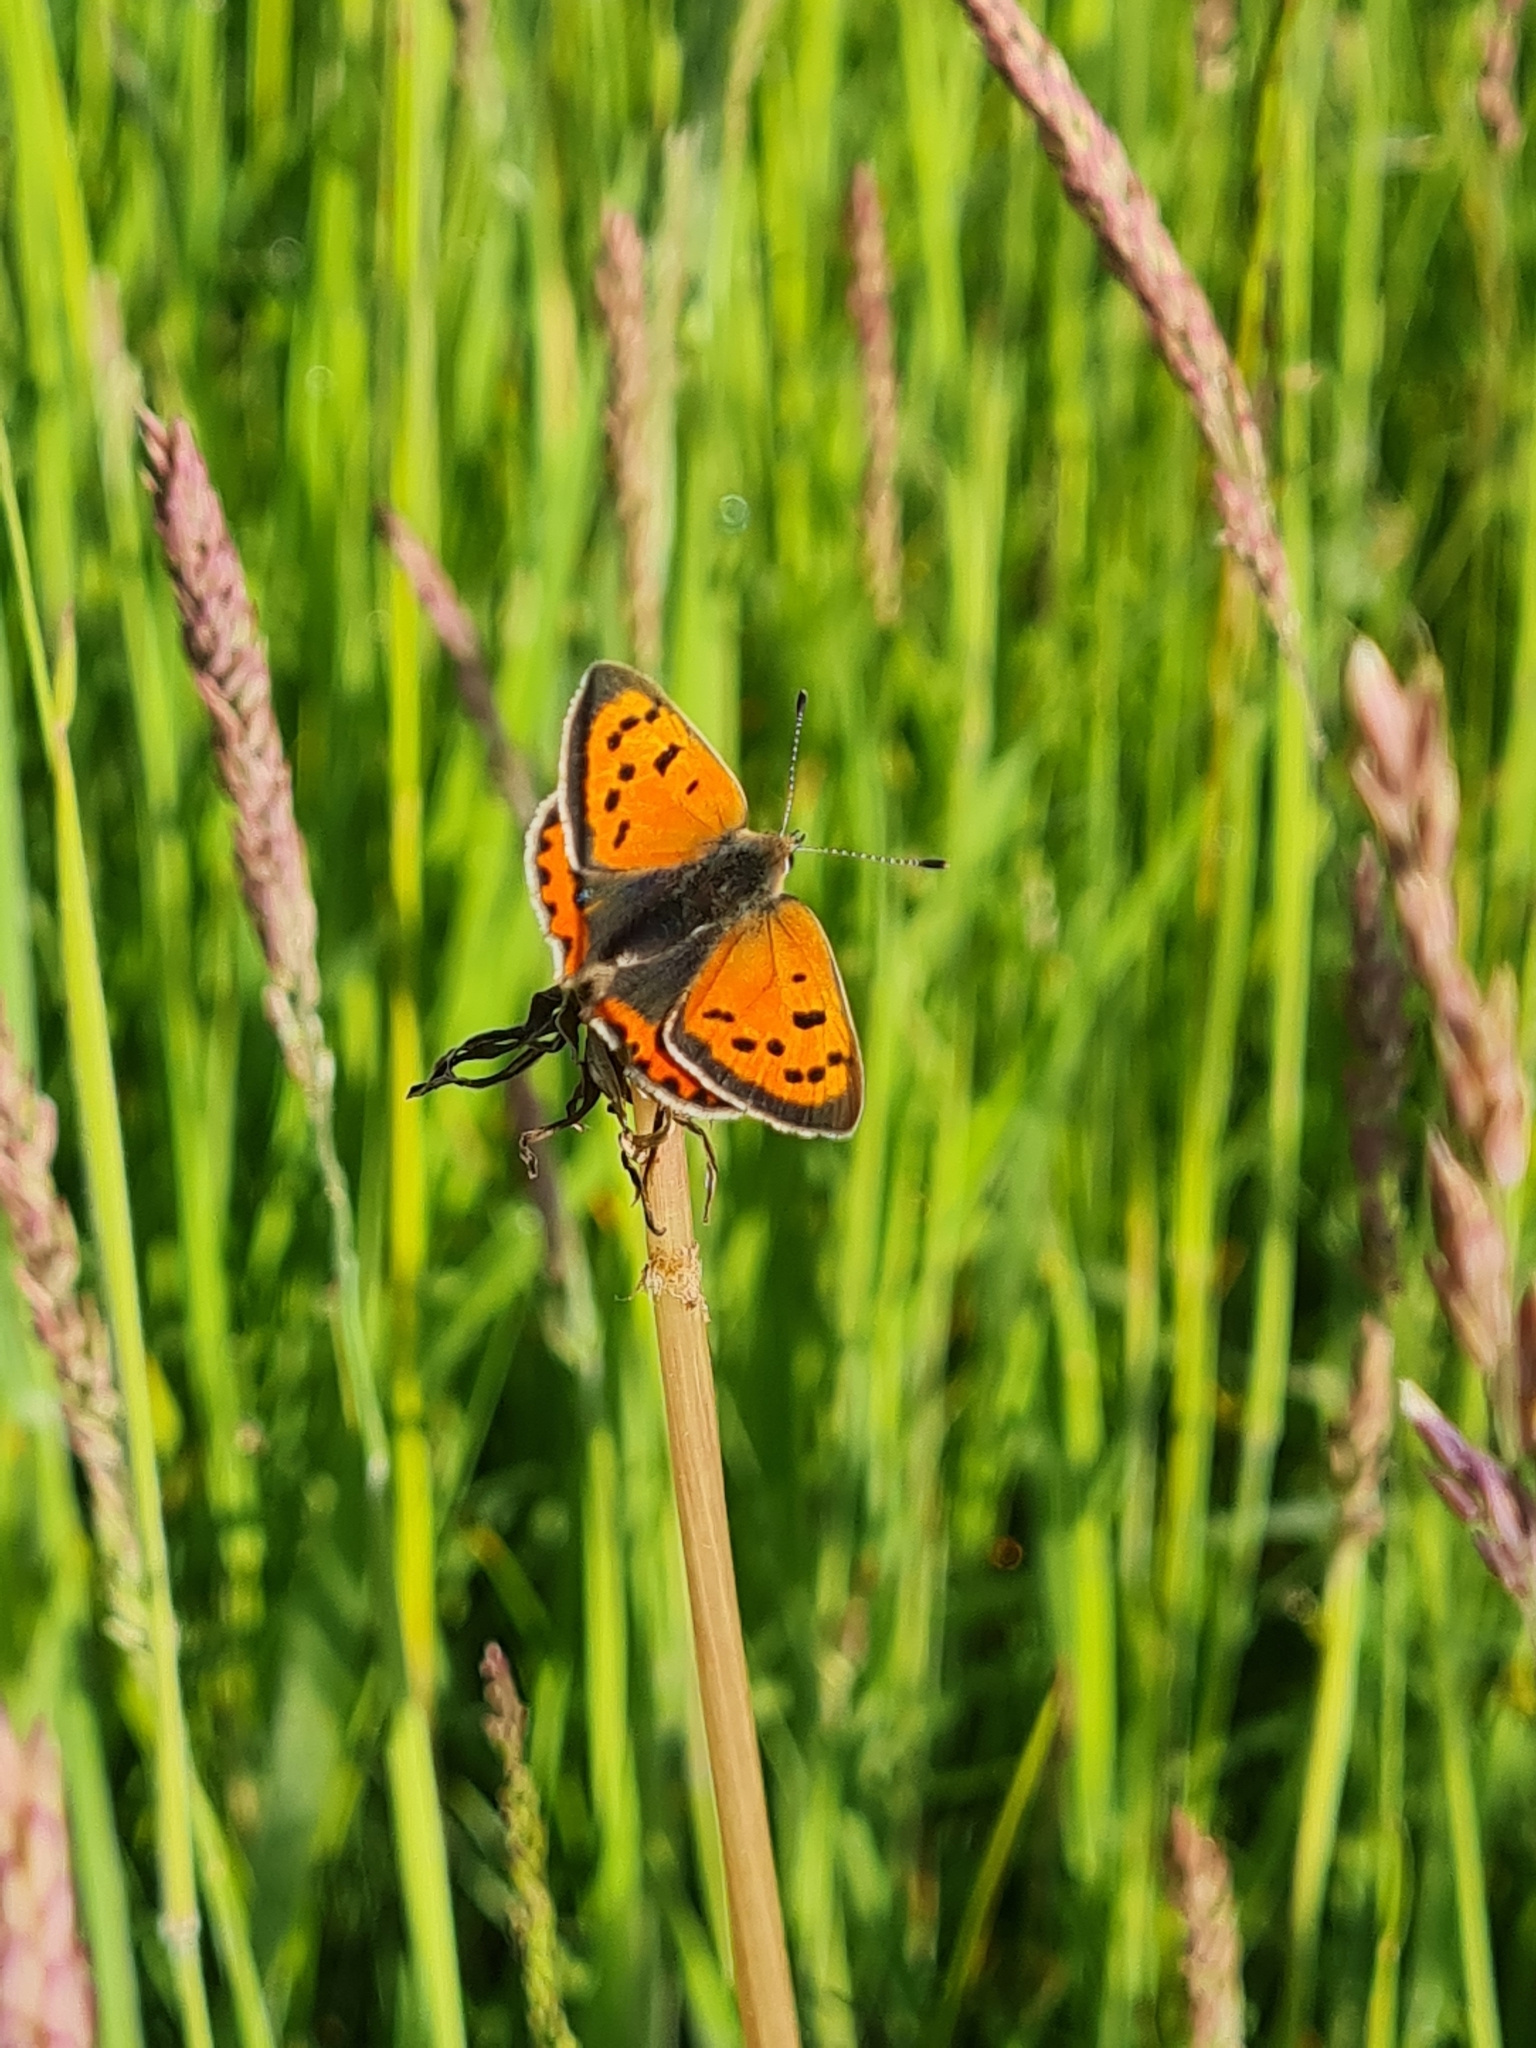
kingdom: Animalia
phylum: Arthropoda
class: Insecta
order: Lepidoptera
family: Lycaenidae
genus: Lycaena
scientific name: Lycaena phlaeas
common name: Small copper
